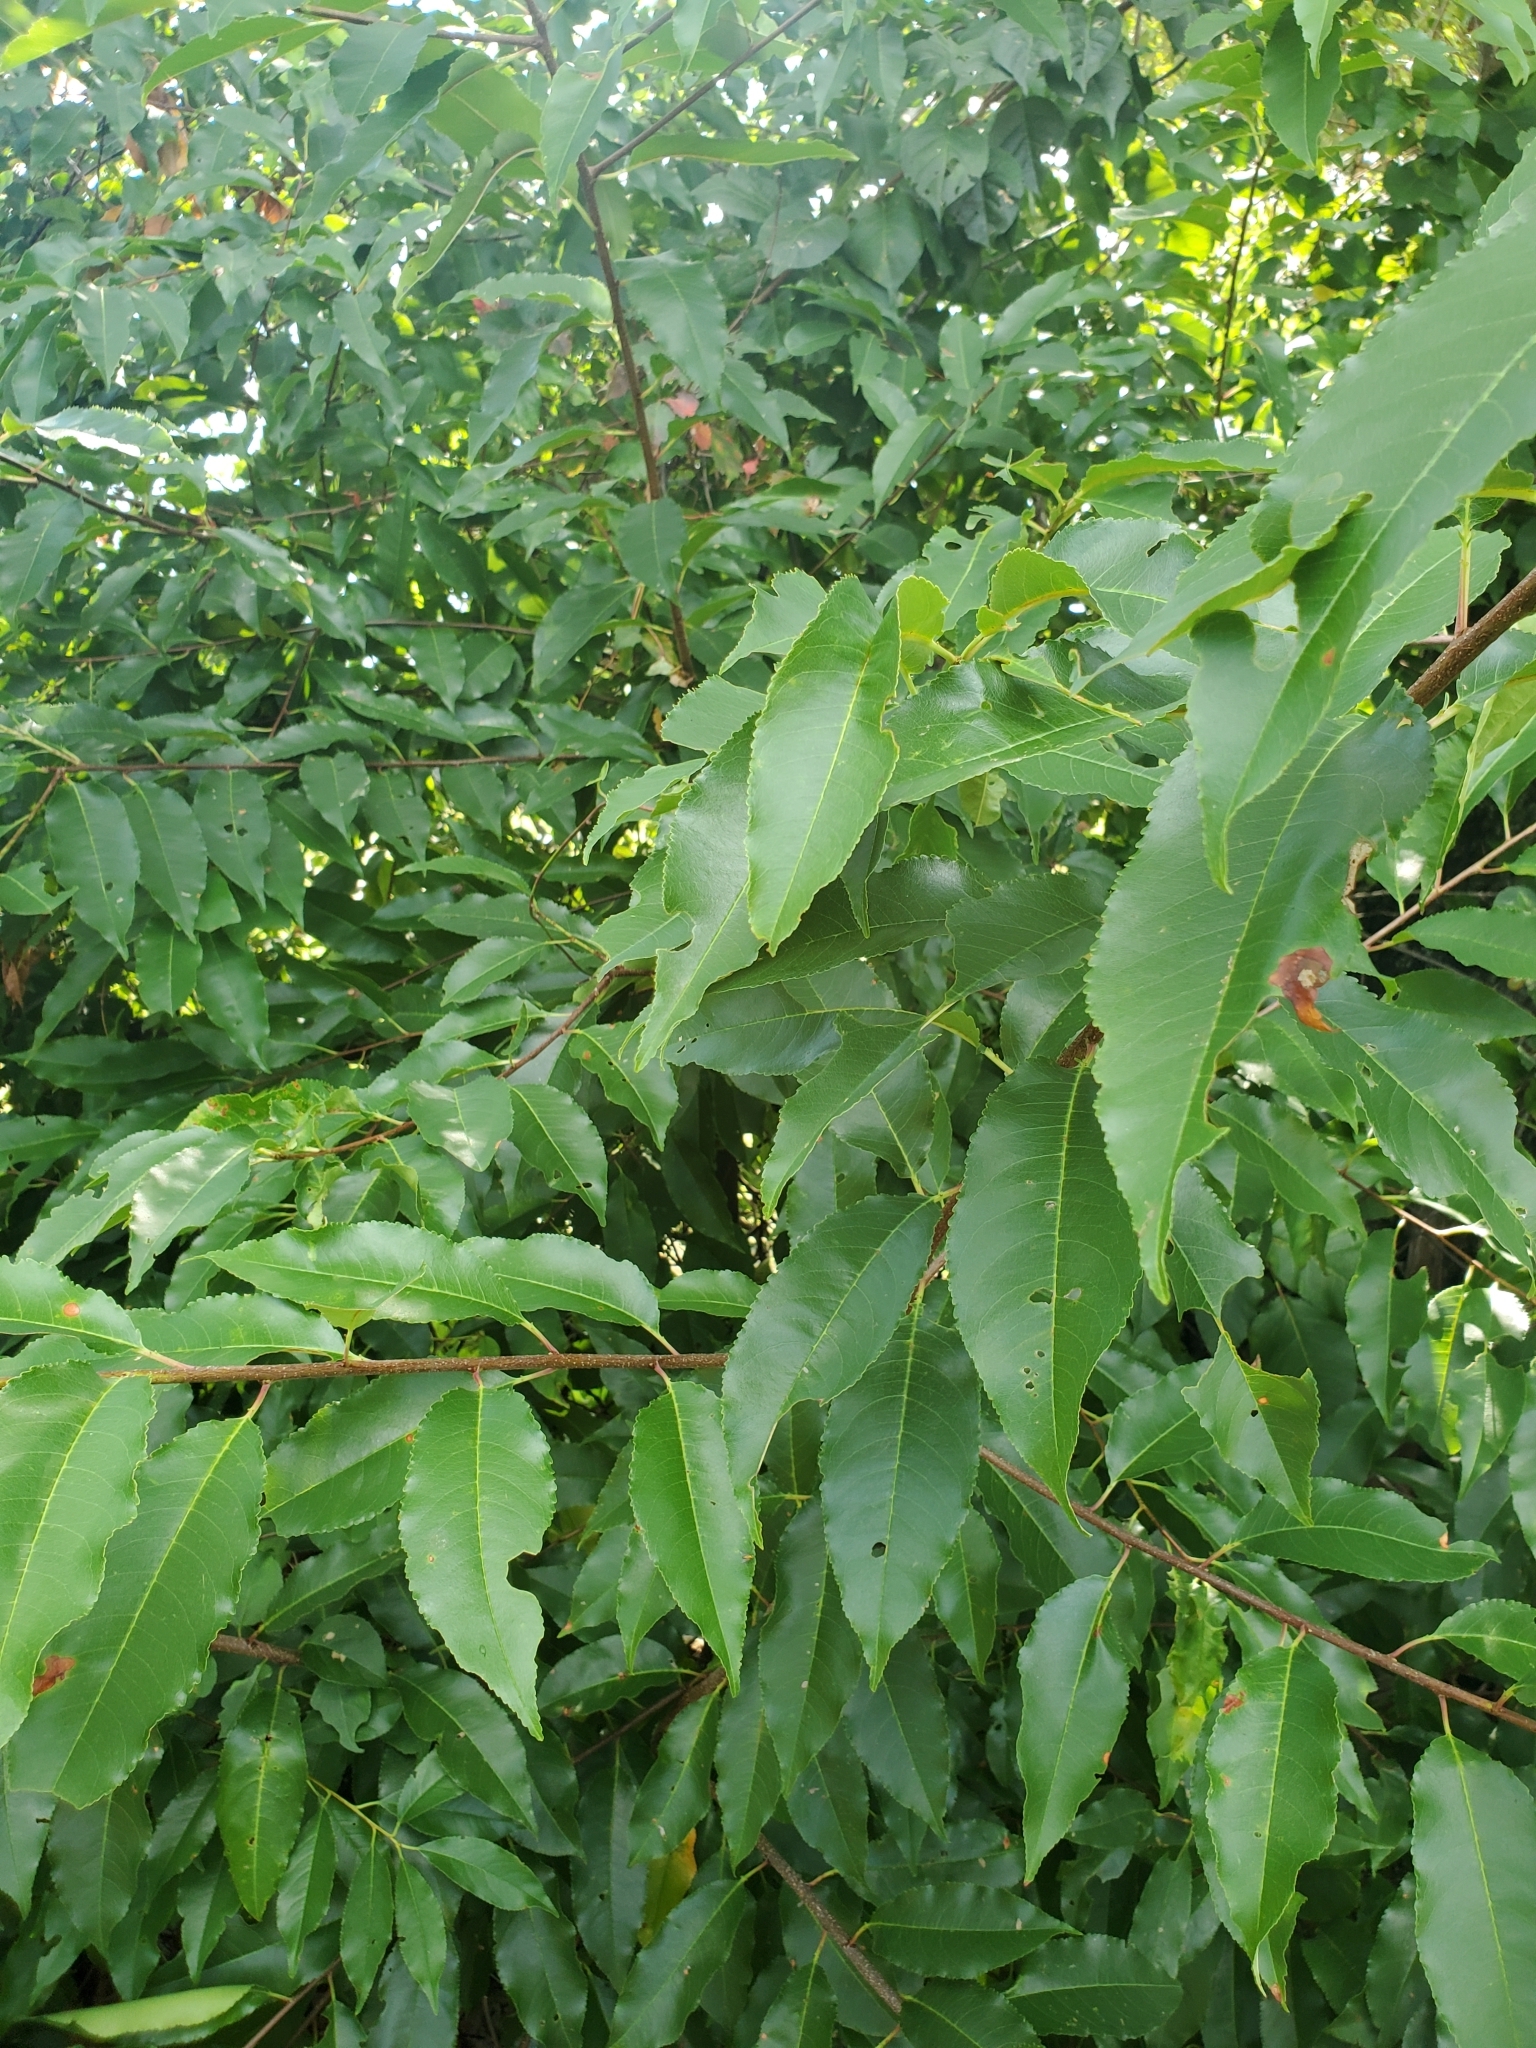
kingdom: Plantae
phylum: Tracheophyta
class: Magnoliopsida
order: Rosales
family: Rosaceae
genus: Prunus
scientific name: Prunus serotina
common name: Black cherry
